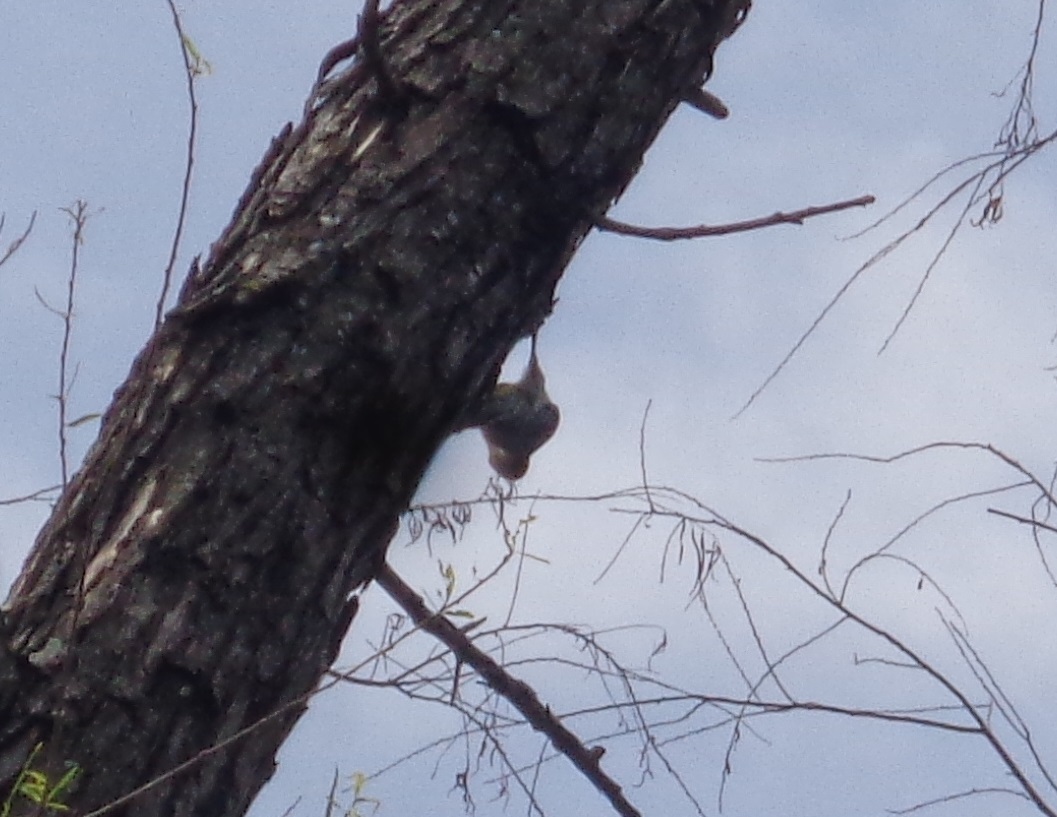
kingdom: Animalia
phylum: Chordata
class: Aves
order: Piciformes
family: Picidae
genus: Melanerpes
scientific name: Melanerpes aurifrons
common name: Golden-fronted woodpecker
